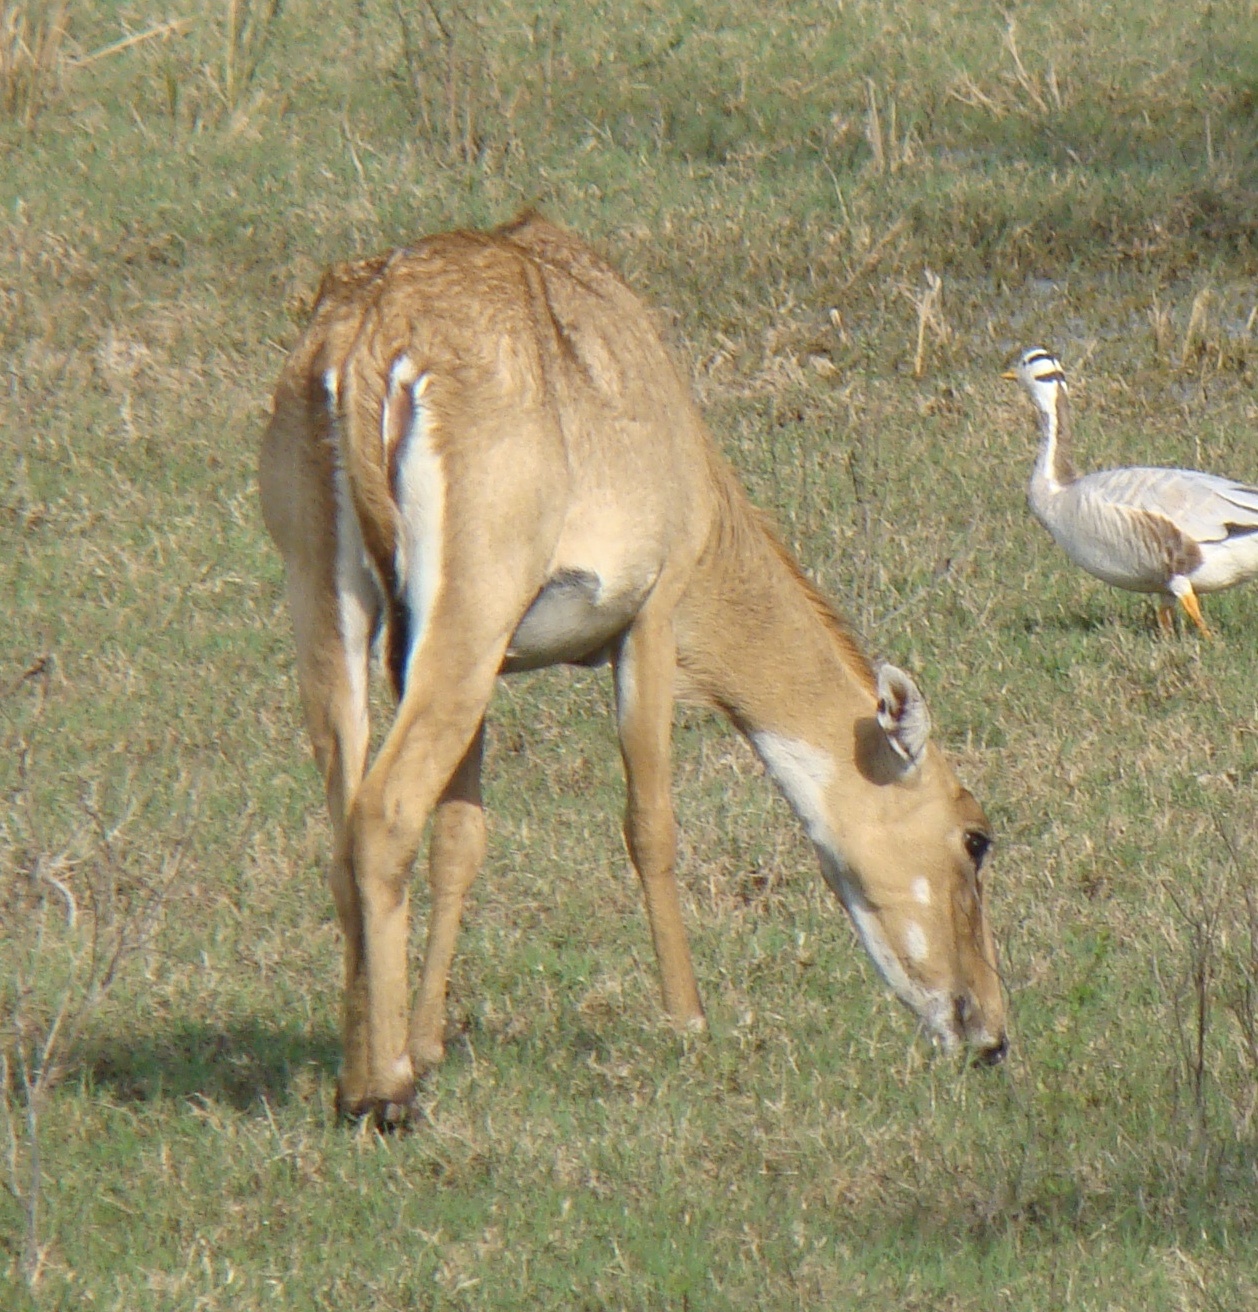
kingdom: Animalia
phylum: Chordata
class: Mammalia
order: Artiodactyla
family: Bovidae
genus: Boselaphus
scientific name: Boselaphus tragocamelus
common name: Nilgai
